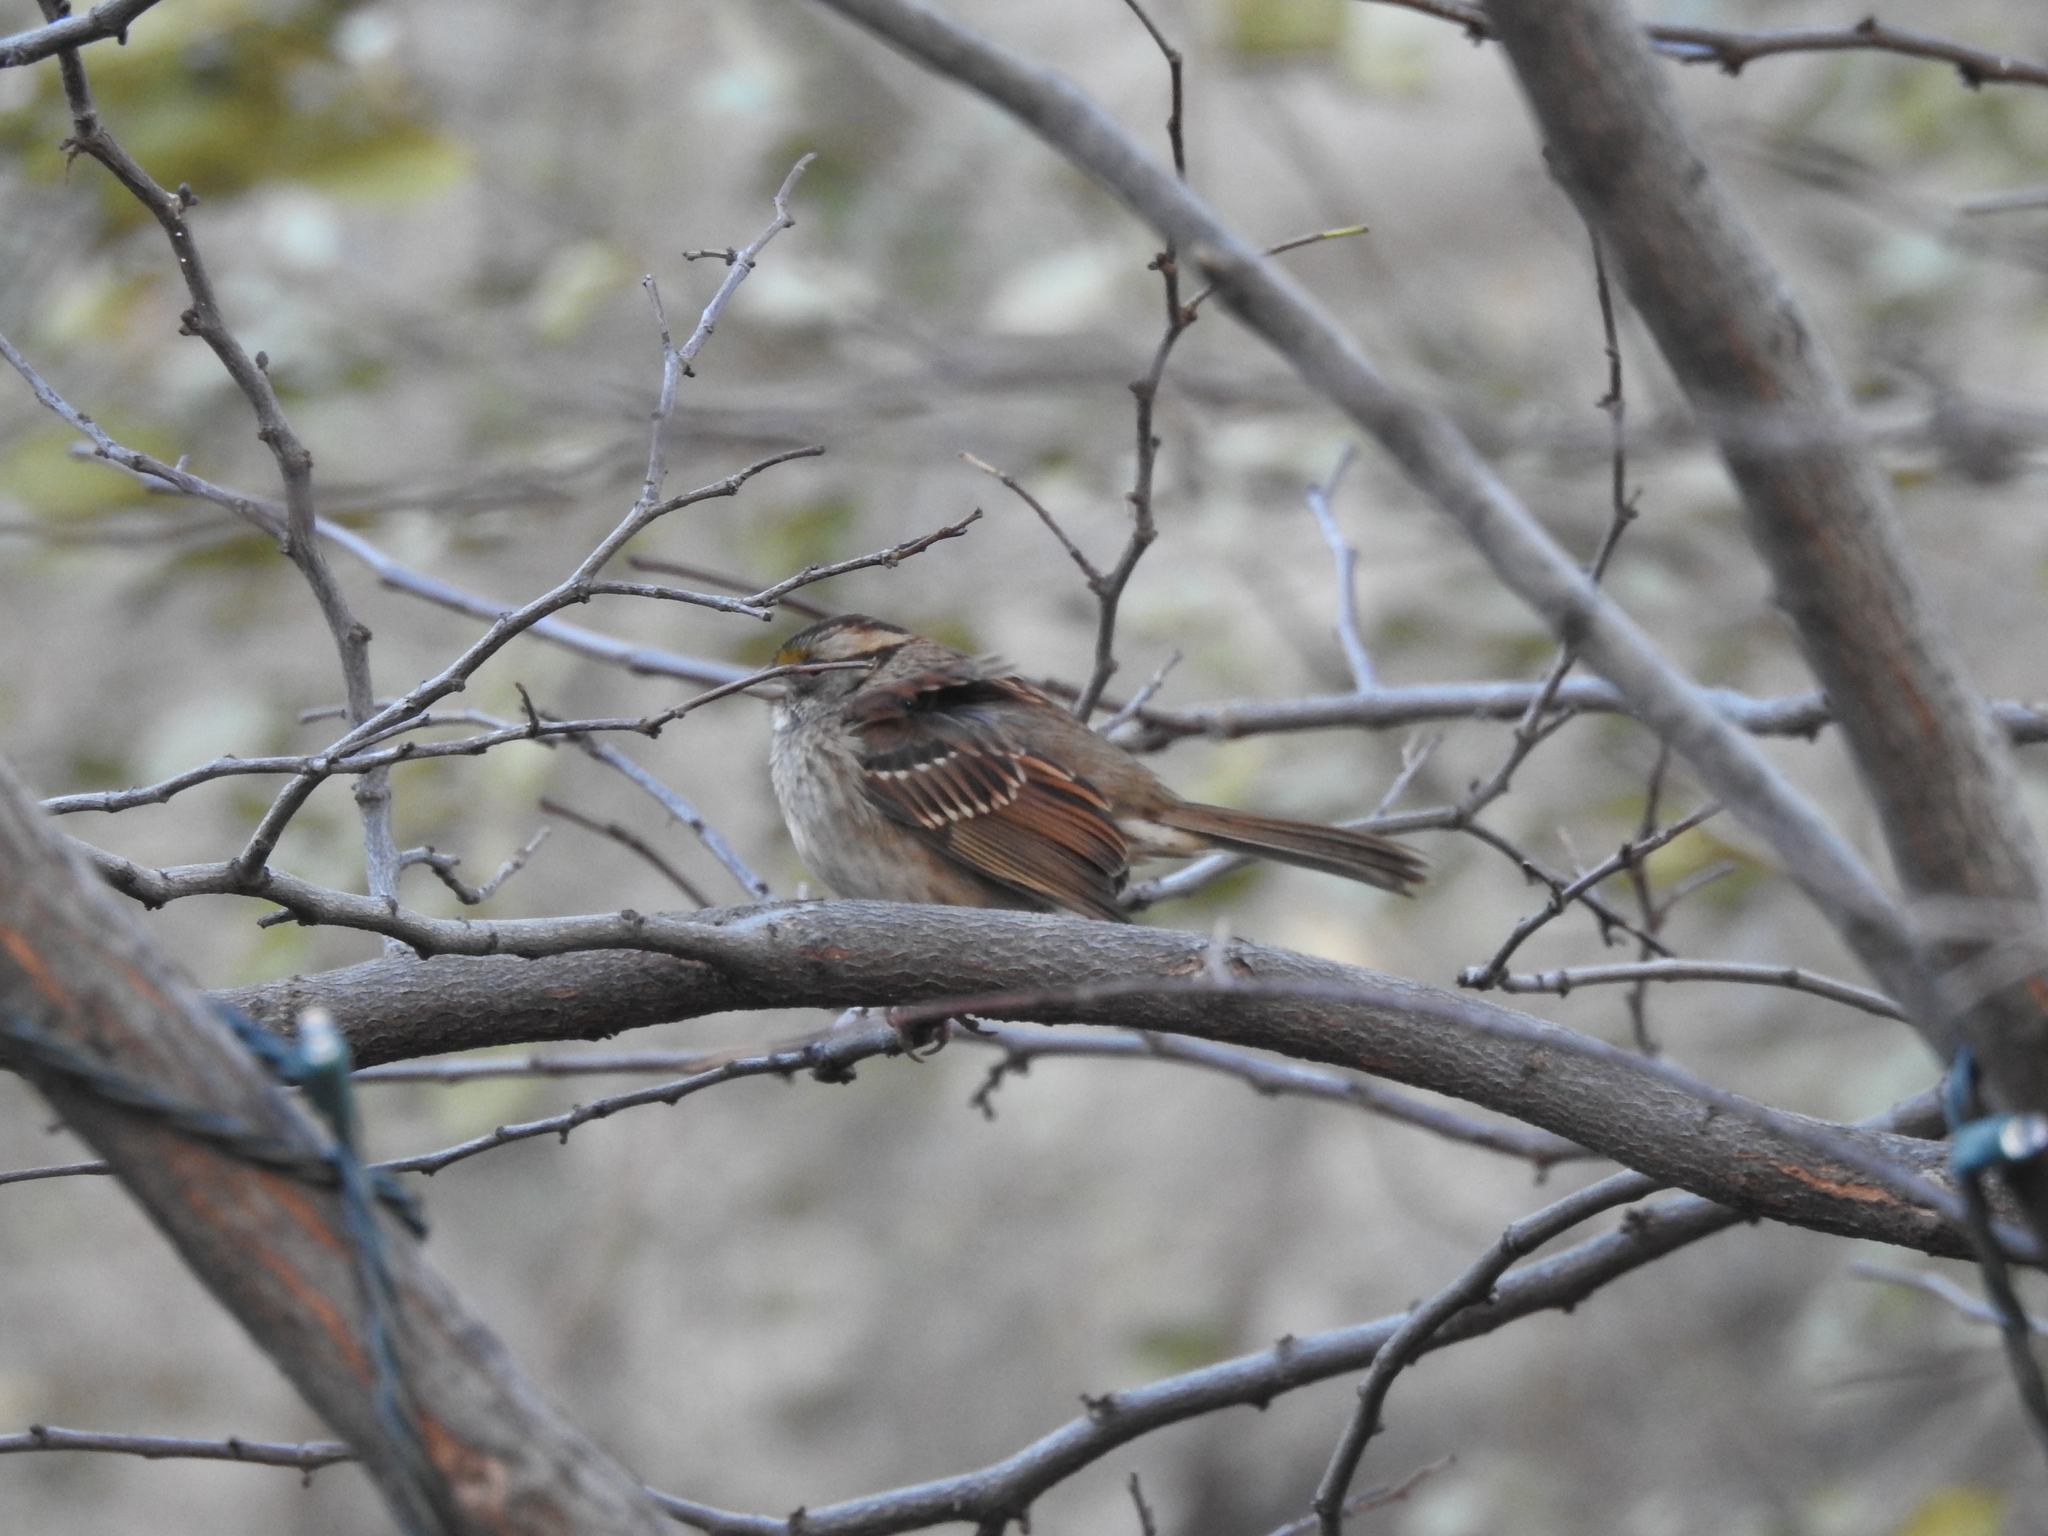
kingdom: Animalia
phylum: Chordata
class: Aves
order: Passeriformes
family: Passerellidae
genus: Zonotrichia
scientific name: Zonotrichia albicollis
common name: White-throated sparrow
